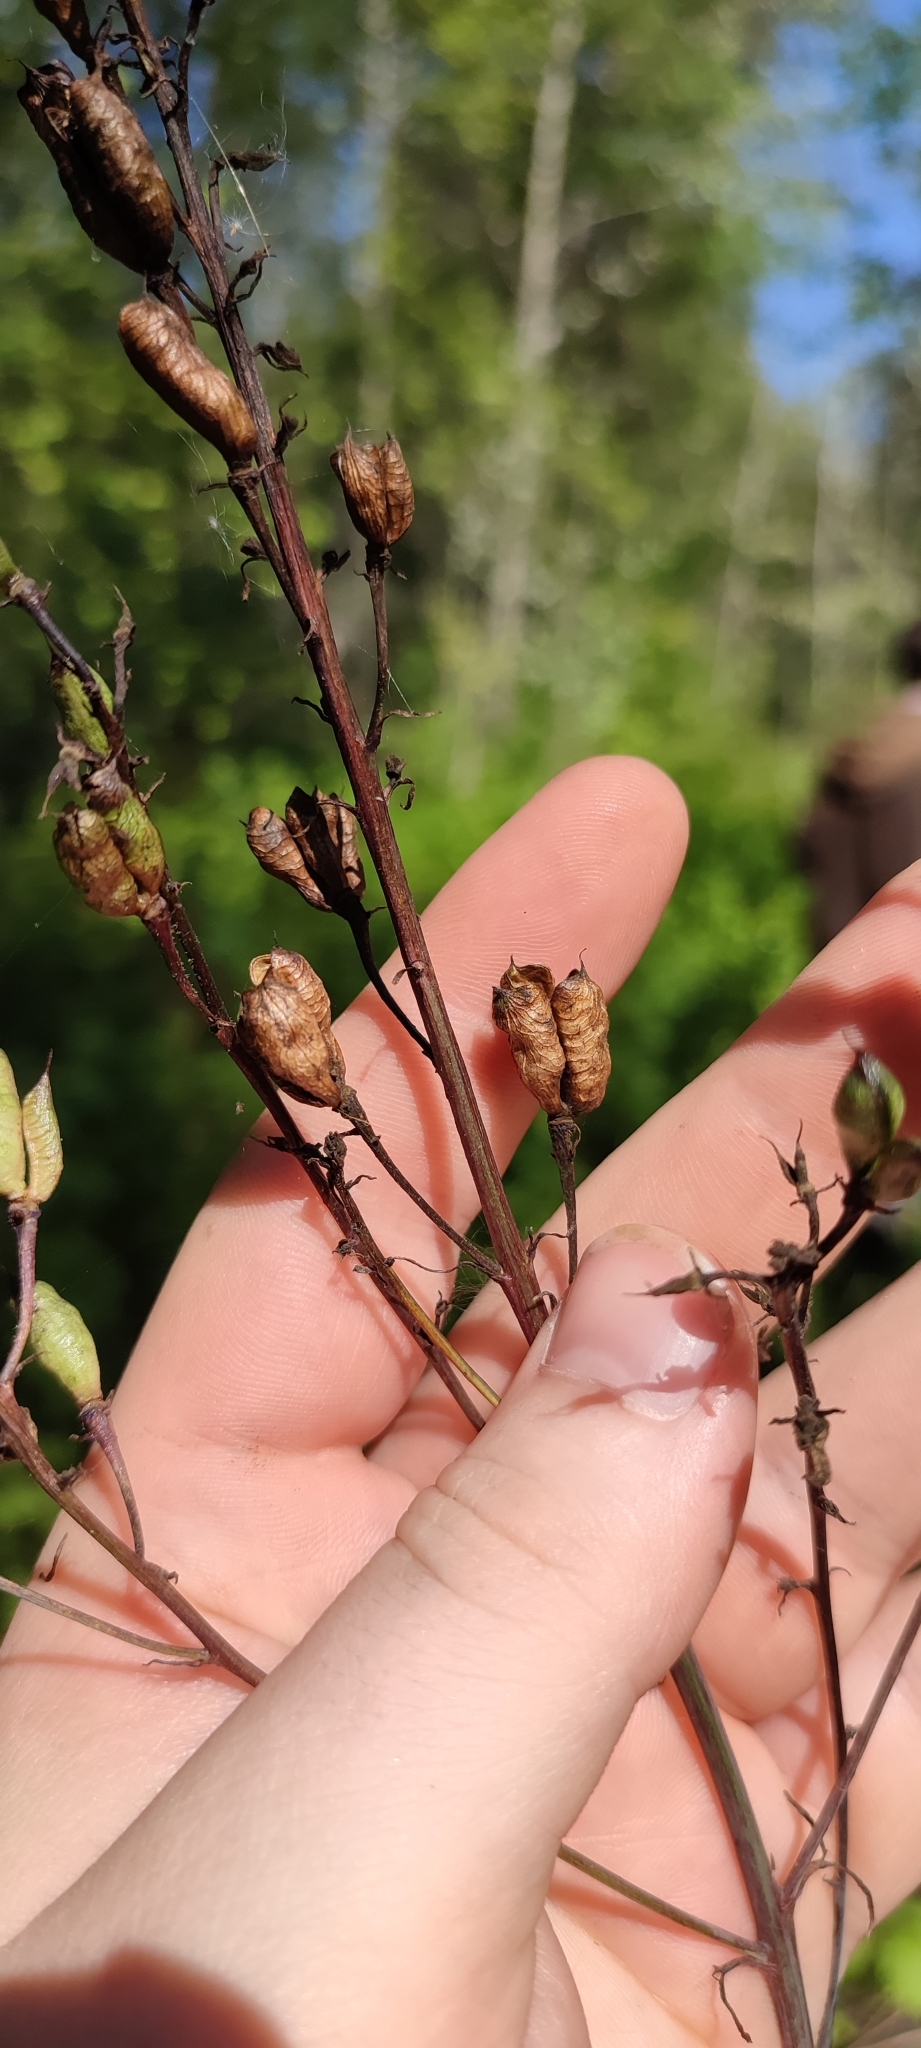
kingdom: Plantae
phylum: Tracheophyta
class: Magnoliopsida
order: Ranunculales
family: Ranunculaceae
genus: Delphinium
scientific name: Delphinium elatum
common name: Candle larkspur
